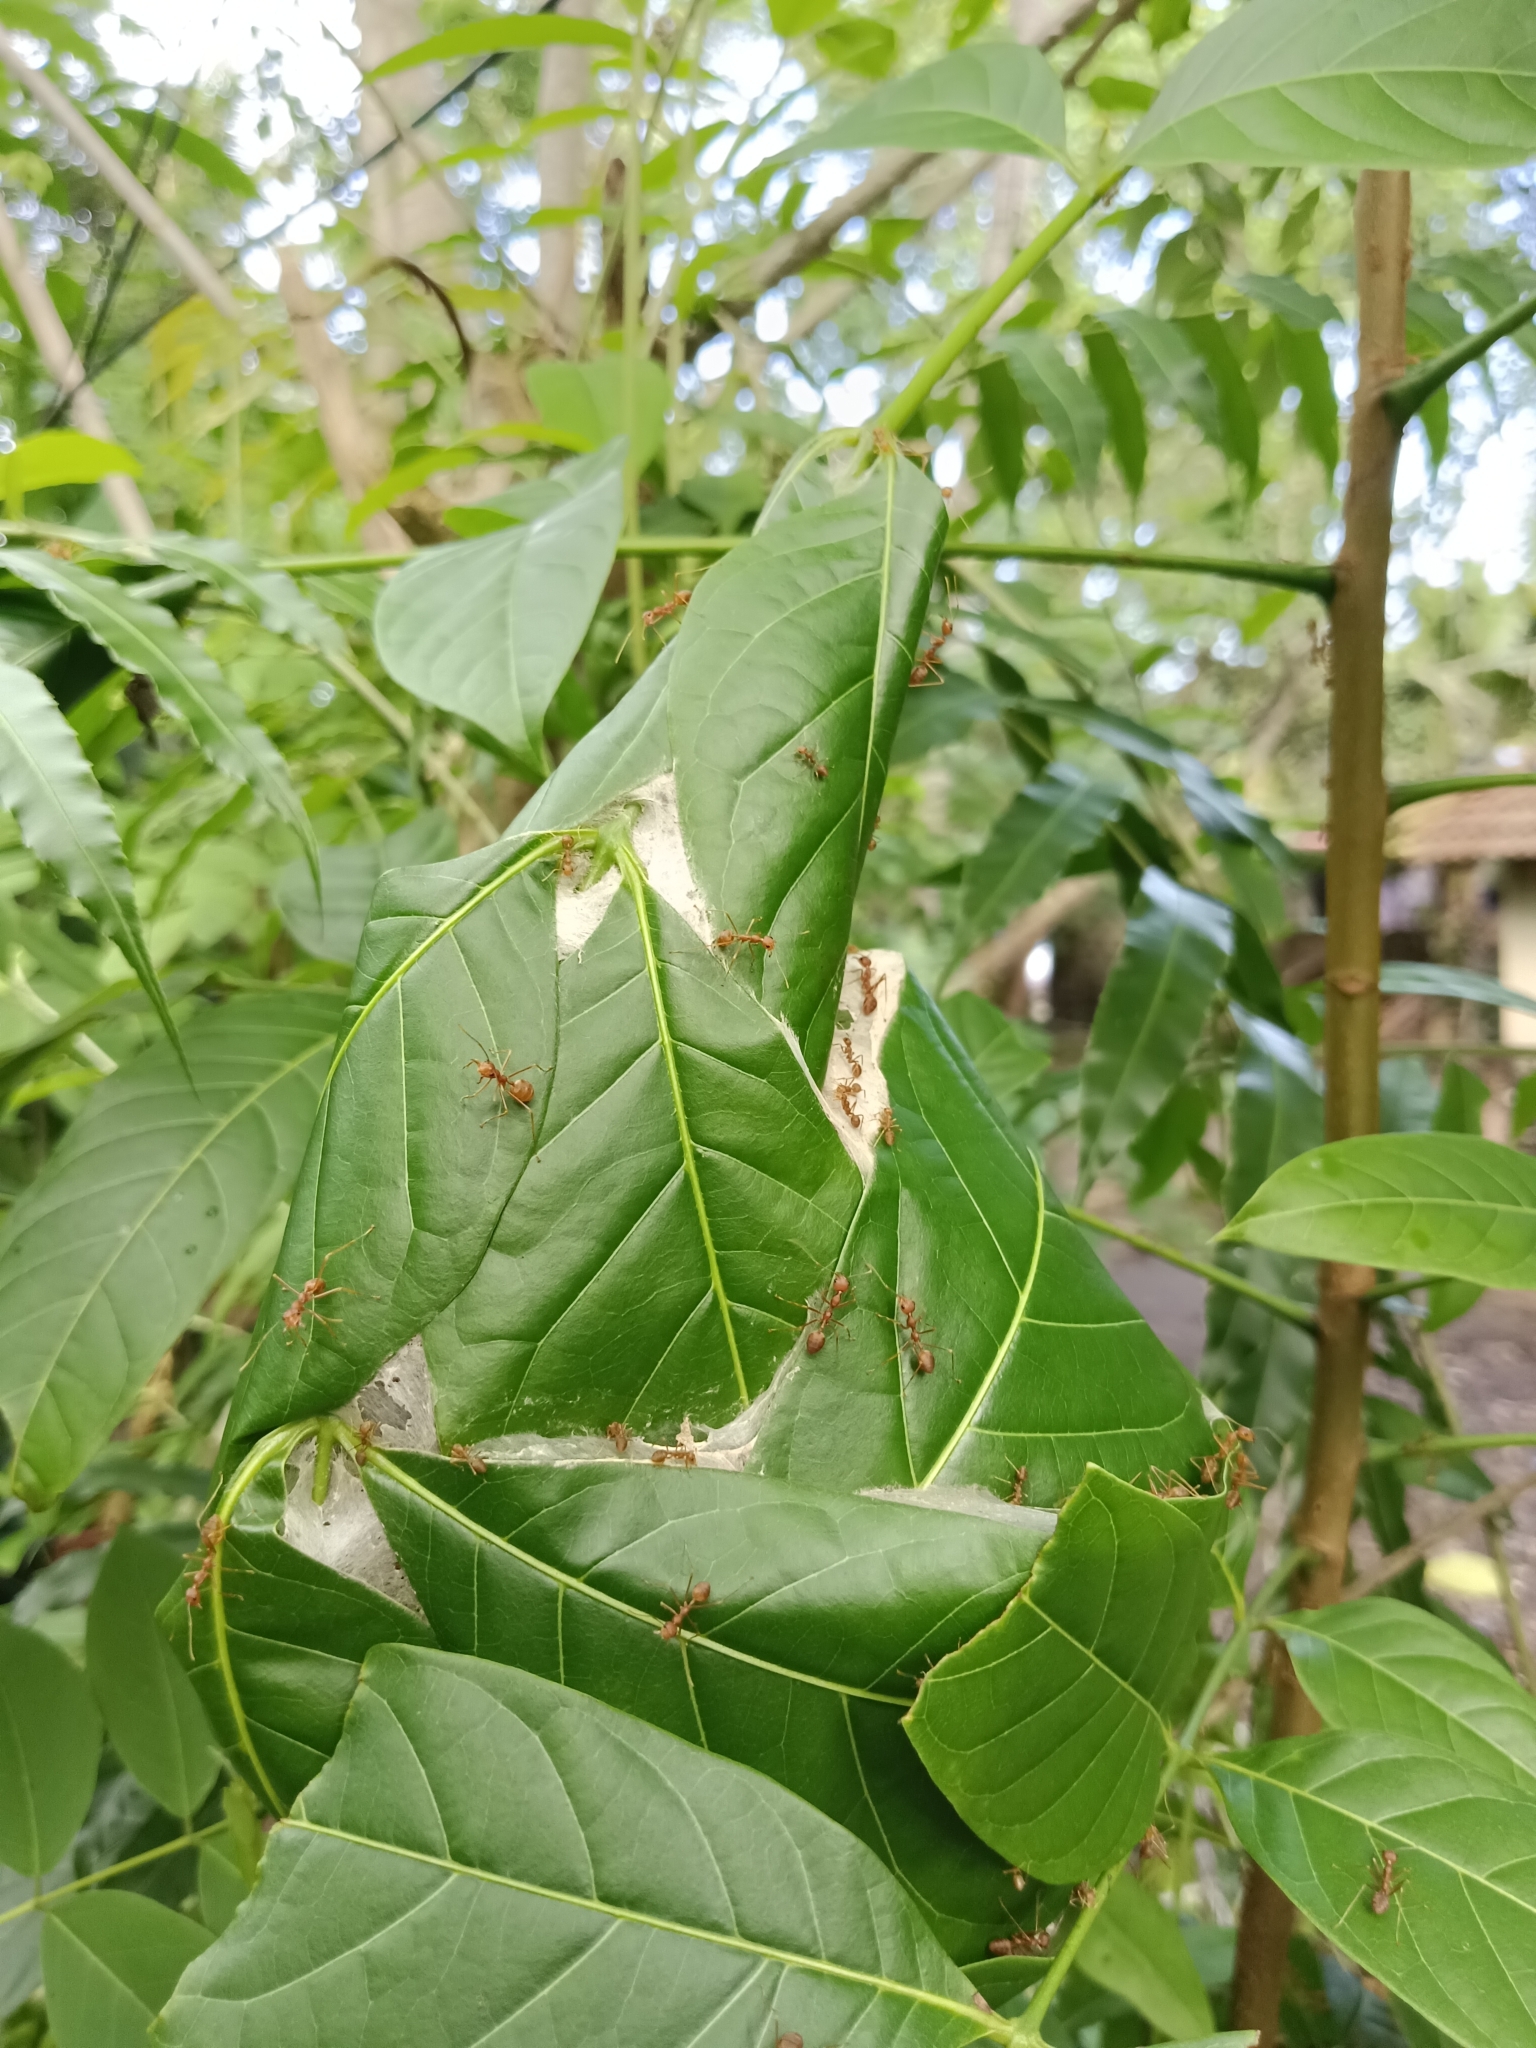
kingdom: Animalia
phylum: Arthropoda
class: Insecta
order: Hymenoptera
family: Formicidae
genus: Oecophylla
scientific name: Oecophylla smaragdina
